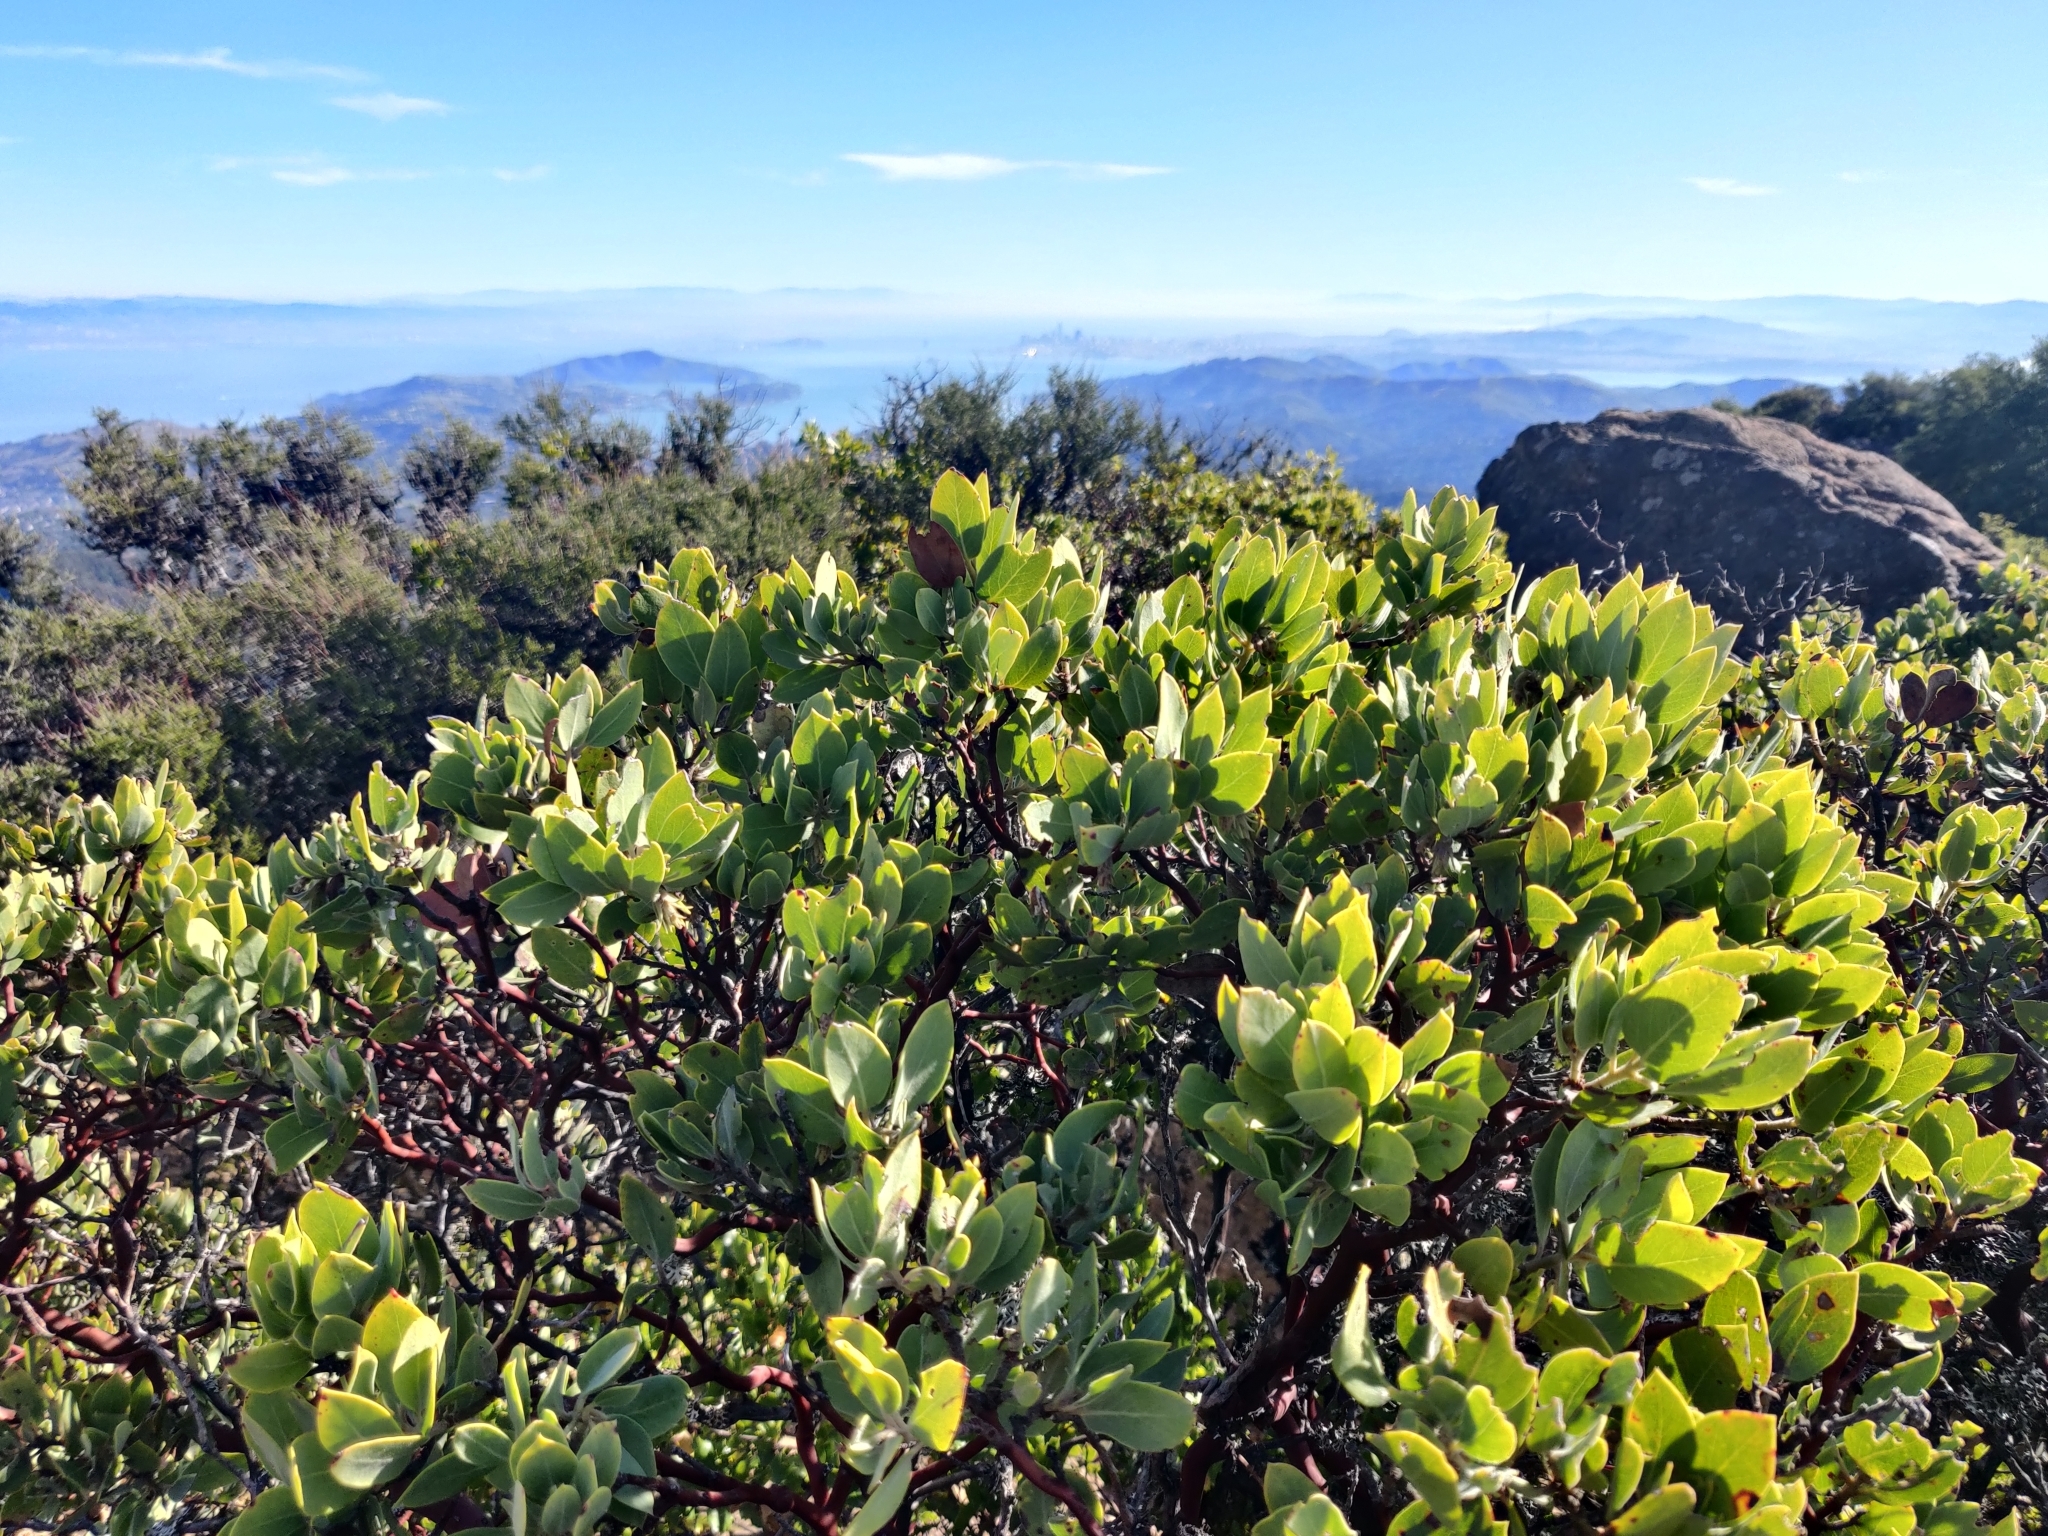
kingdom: Plantae
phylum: Tracheophyta
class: Magnoliopsida
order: Ericales
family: Ericaceae
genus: Arctostaphylos
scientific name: Arctostaphylos glandulosa
